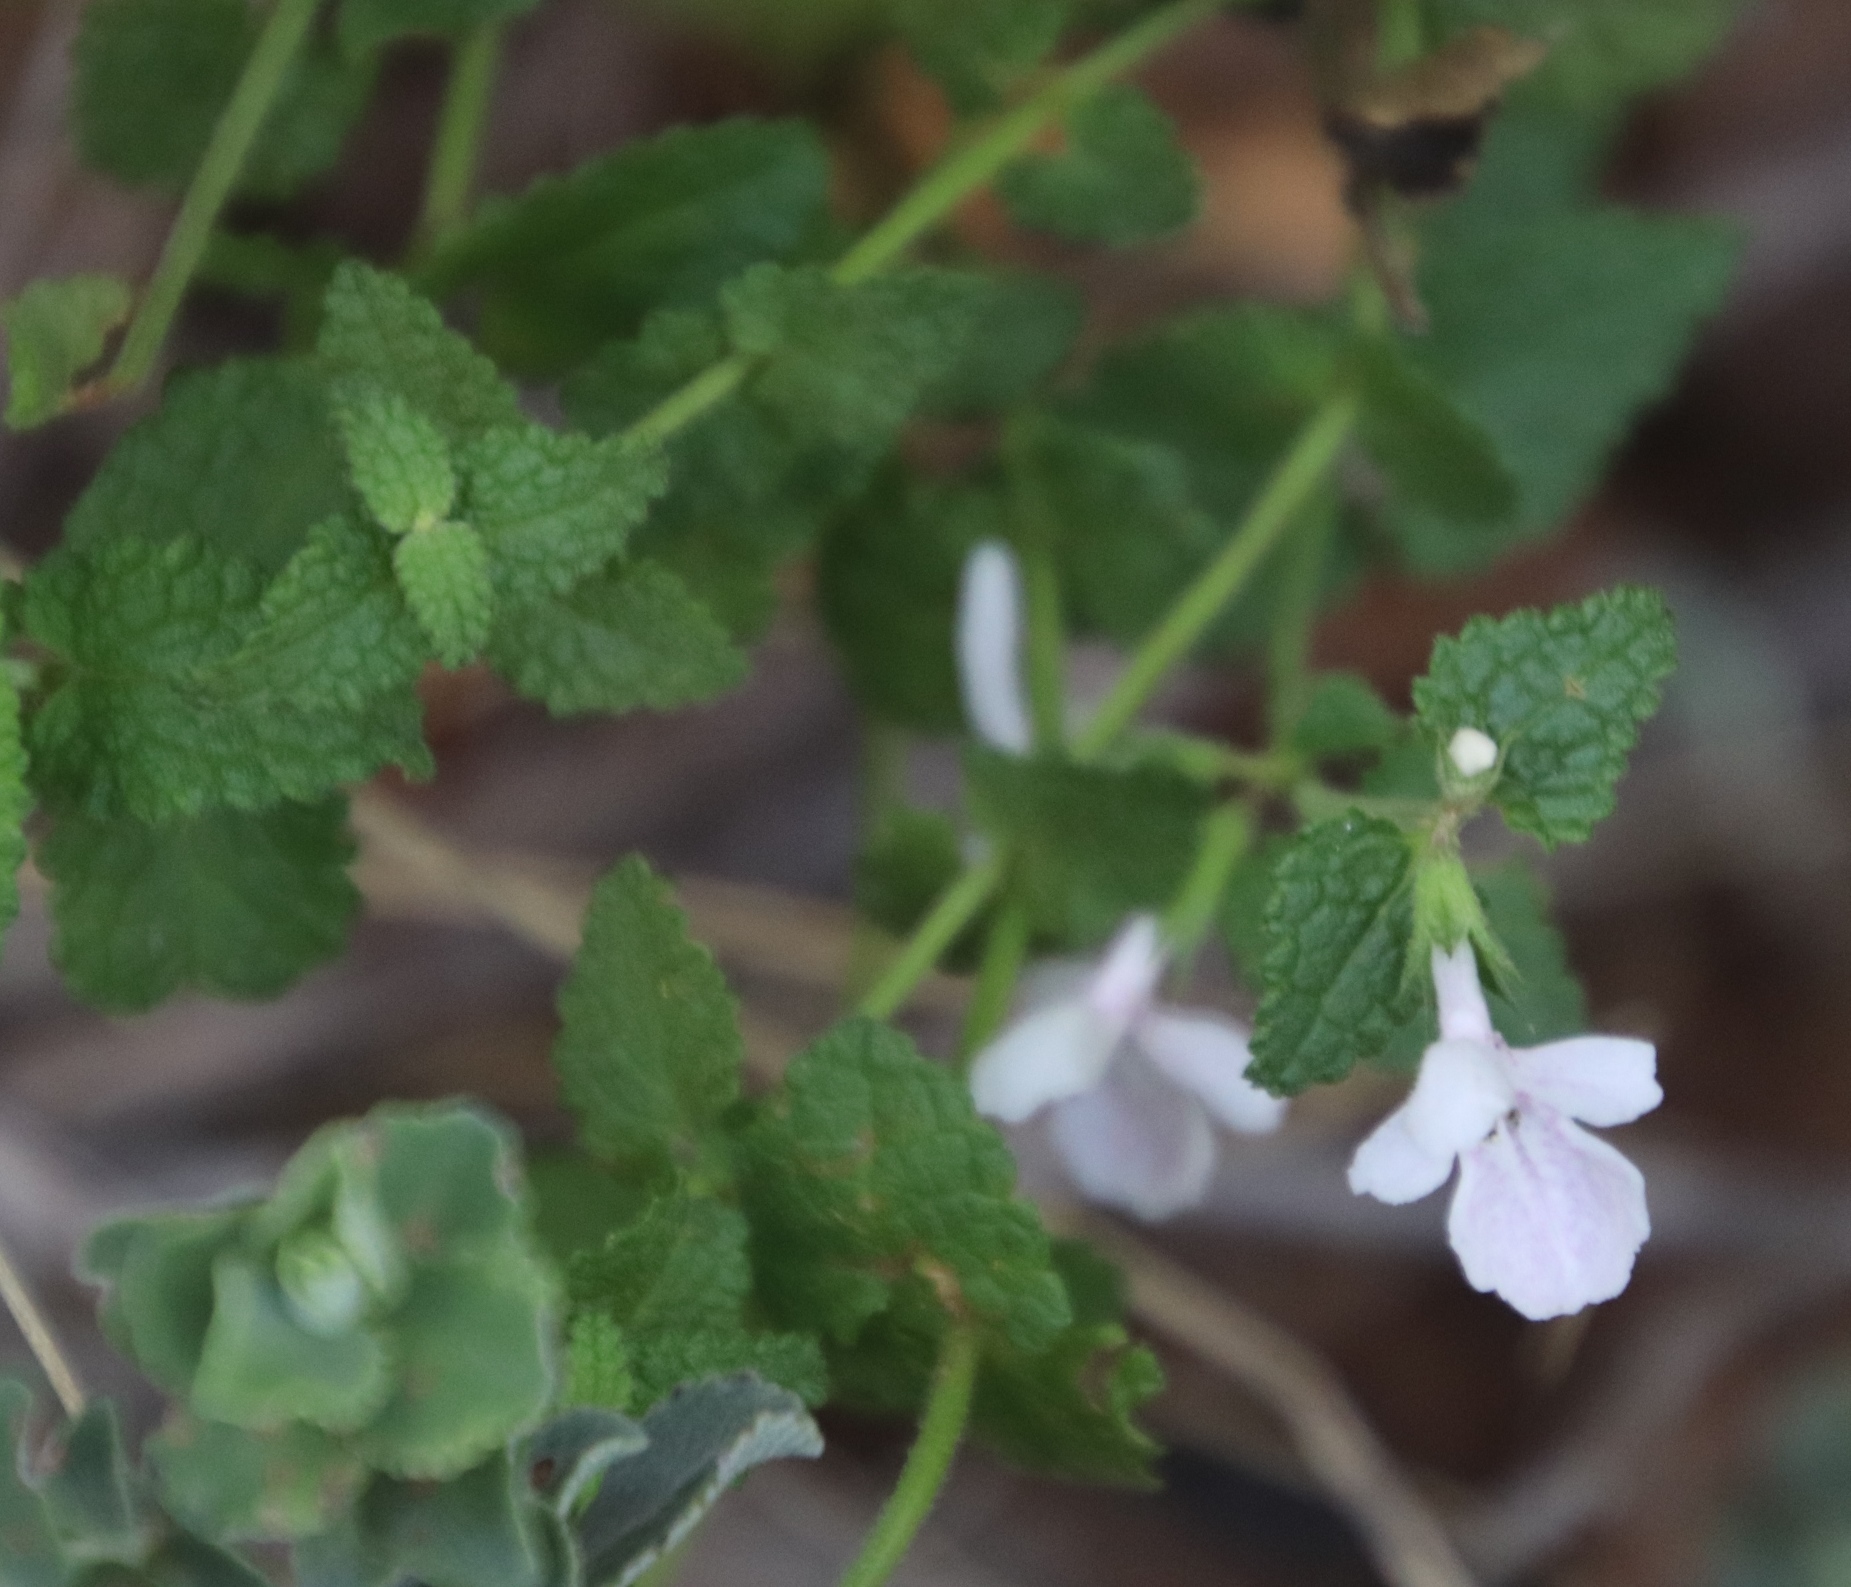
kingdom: Plantae
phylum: Tracheophyta
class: Magnoliopsida
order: Lamiales
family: Lamiaceae
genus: Stachys
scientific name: Stachys aethiopica
